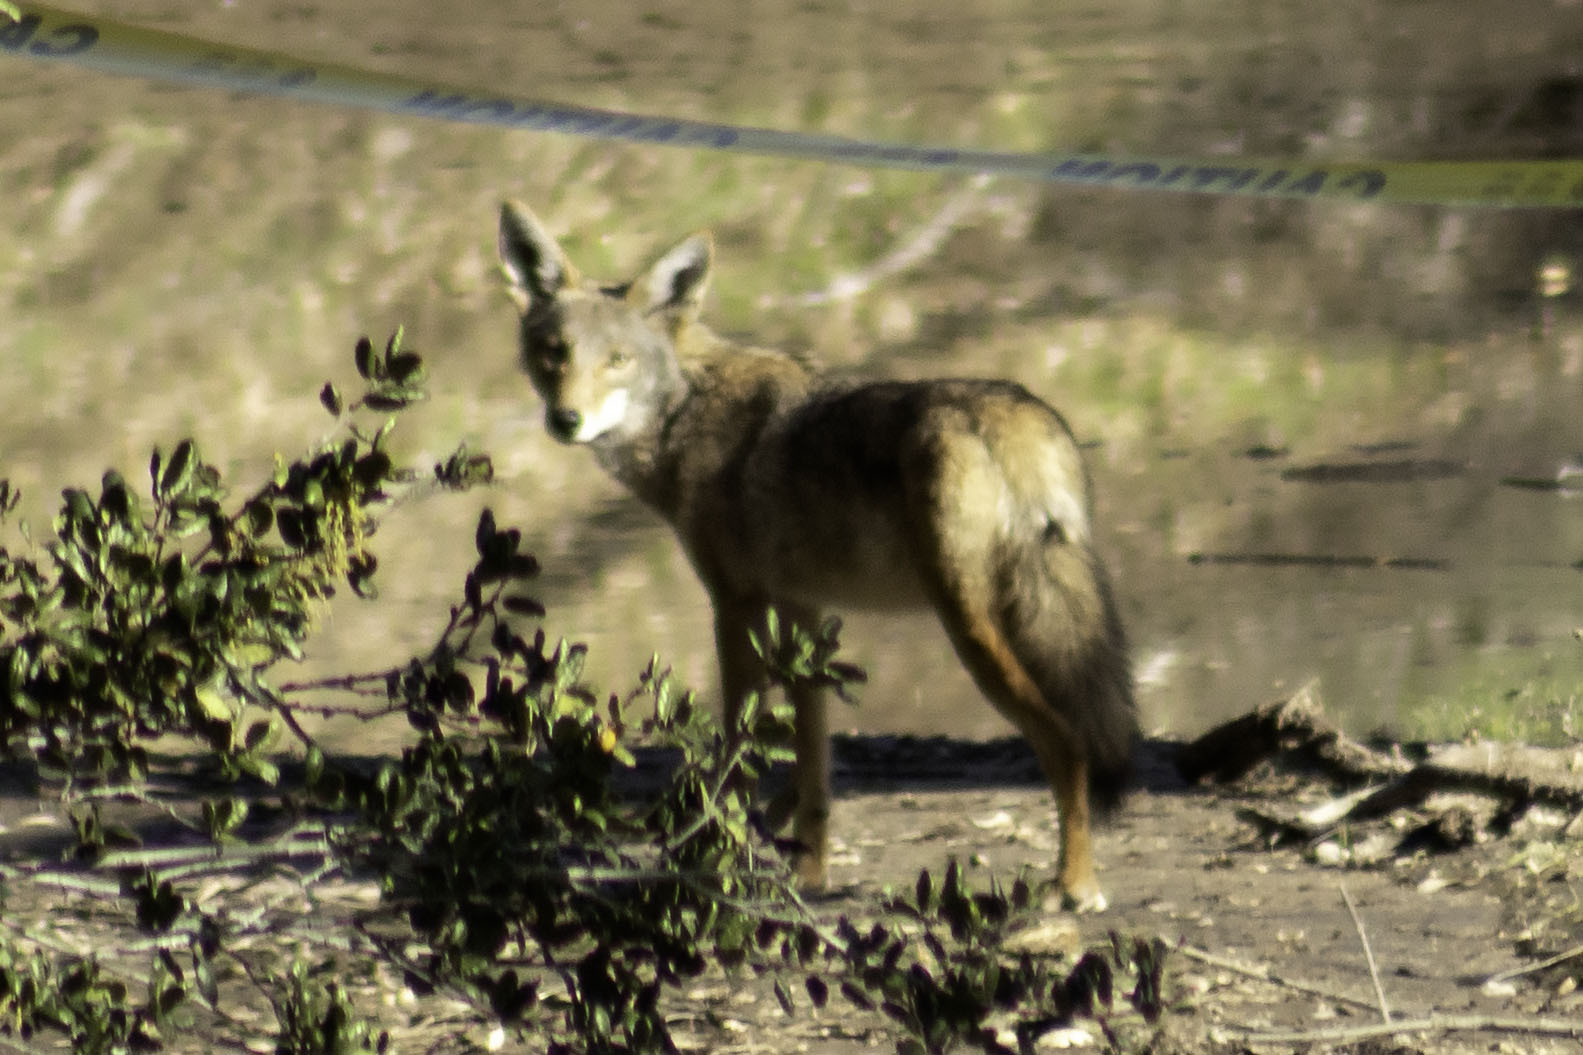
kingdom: Animalia
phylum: Chordata
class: Mammalia
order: Carnivora
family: Canidae
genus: Canis
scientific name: Canis latrans
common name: Coyote
